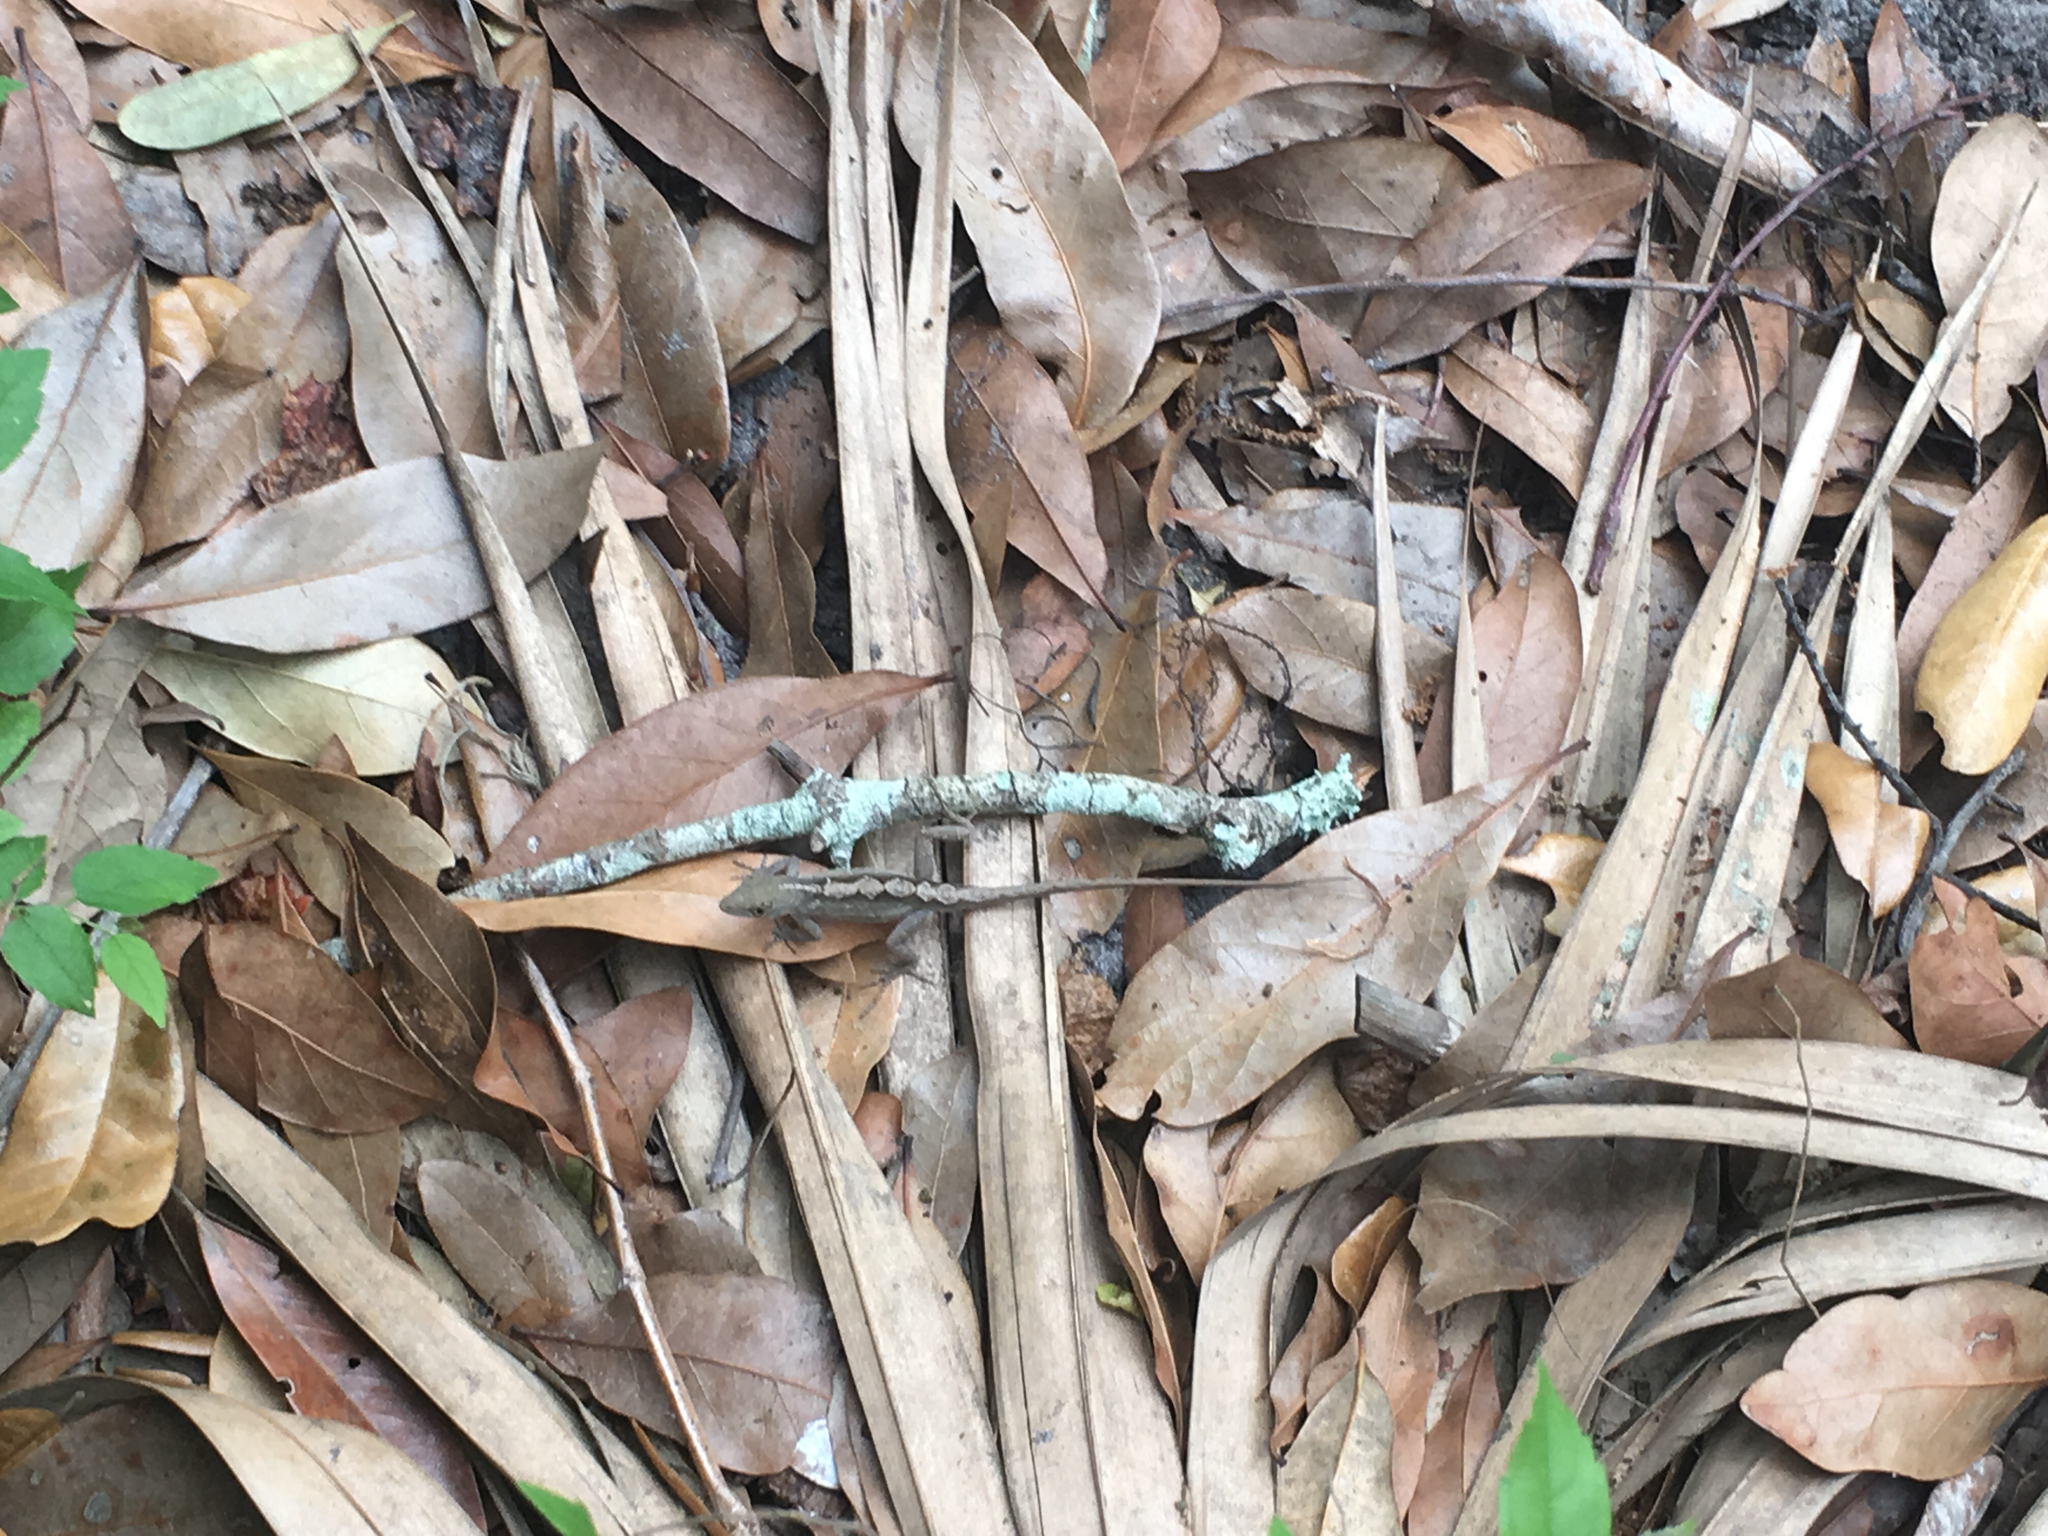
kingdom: Animalia
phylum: Chordata
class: Squamata
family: Dactyloidae
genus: Anolis
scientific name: Anolis sagrei
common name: Brown anole
